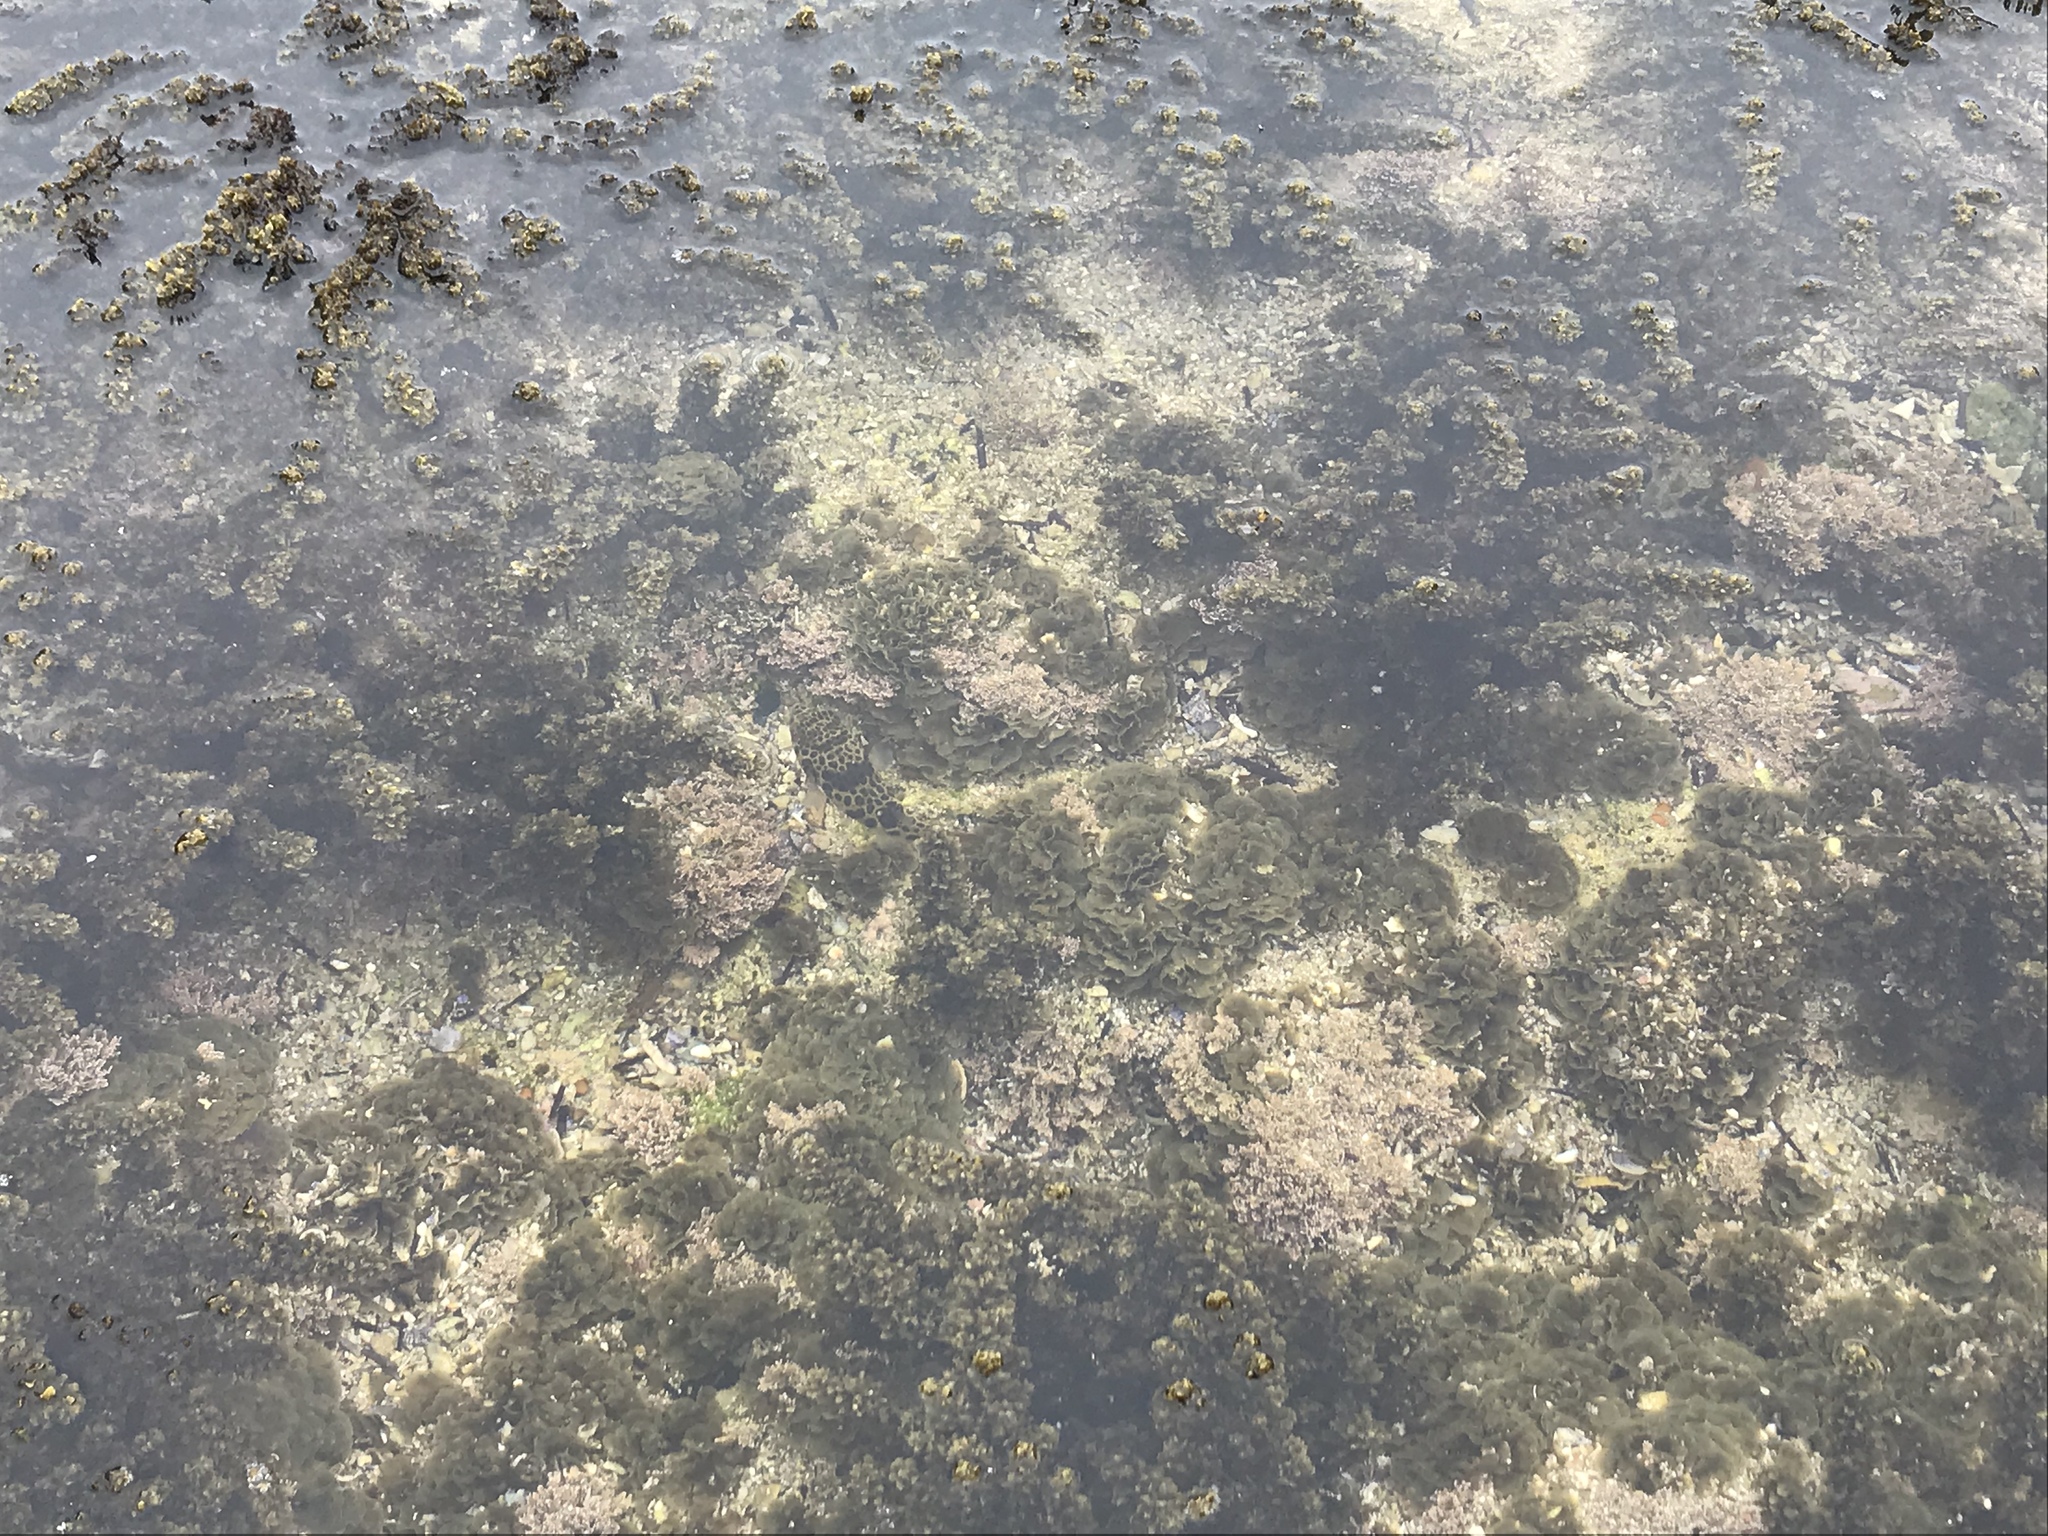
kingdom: Animalia
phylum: Chordata
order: Tetraodontiformes
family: Tetraodontidae
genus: Tetractenos
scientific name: Tetractenos glaber
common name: Smooth toadfish
